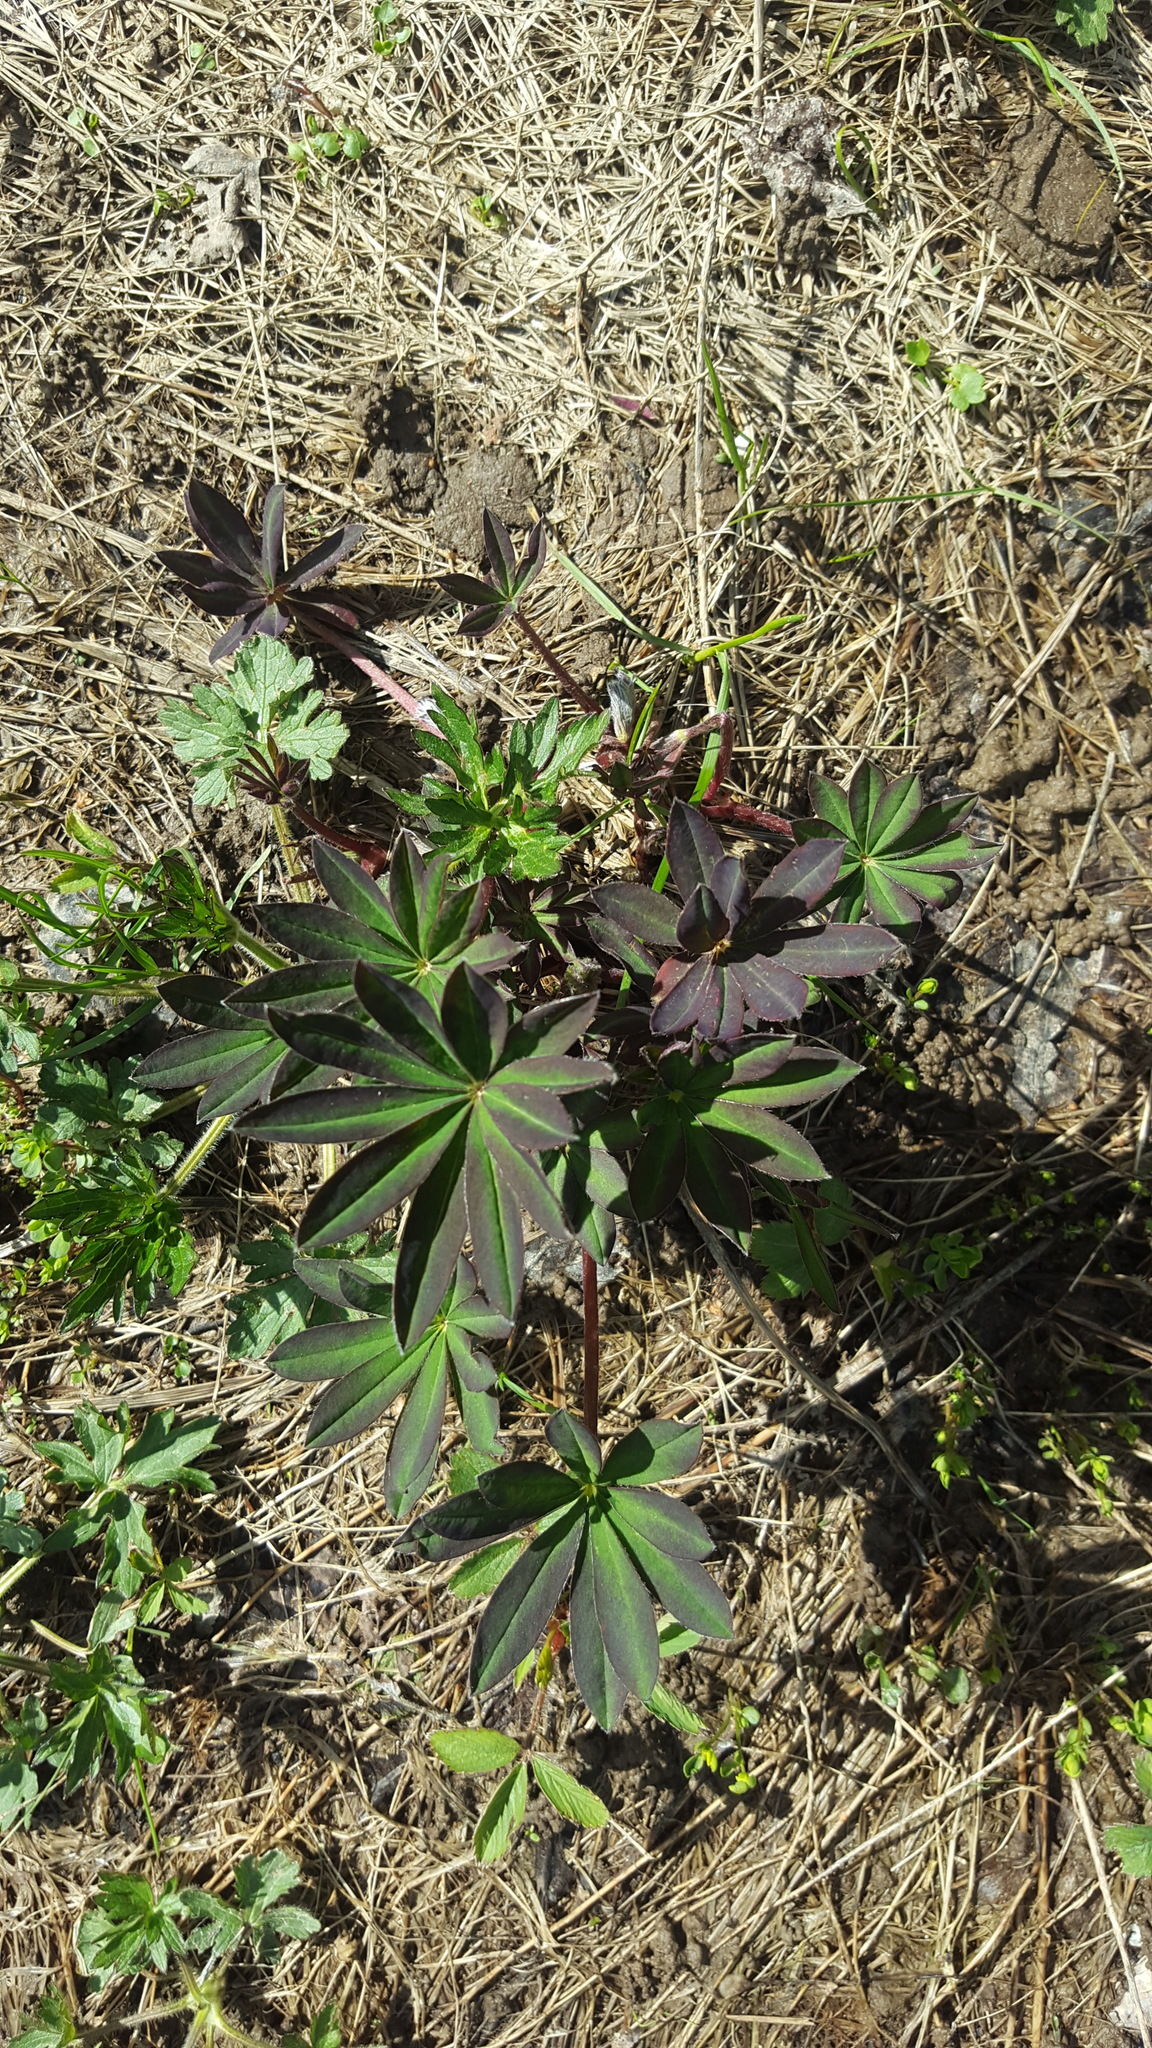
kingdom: Plantae
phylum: Tracheophyta
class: Magnoliopsida
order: Fabales
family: Fabaceae
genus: Lupinus
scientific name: Lupinus polyphyllus
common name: Garden lupin
